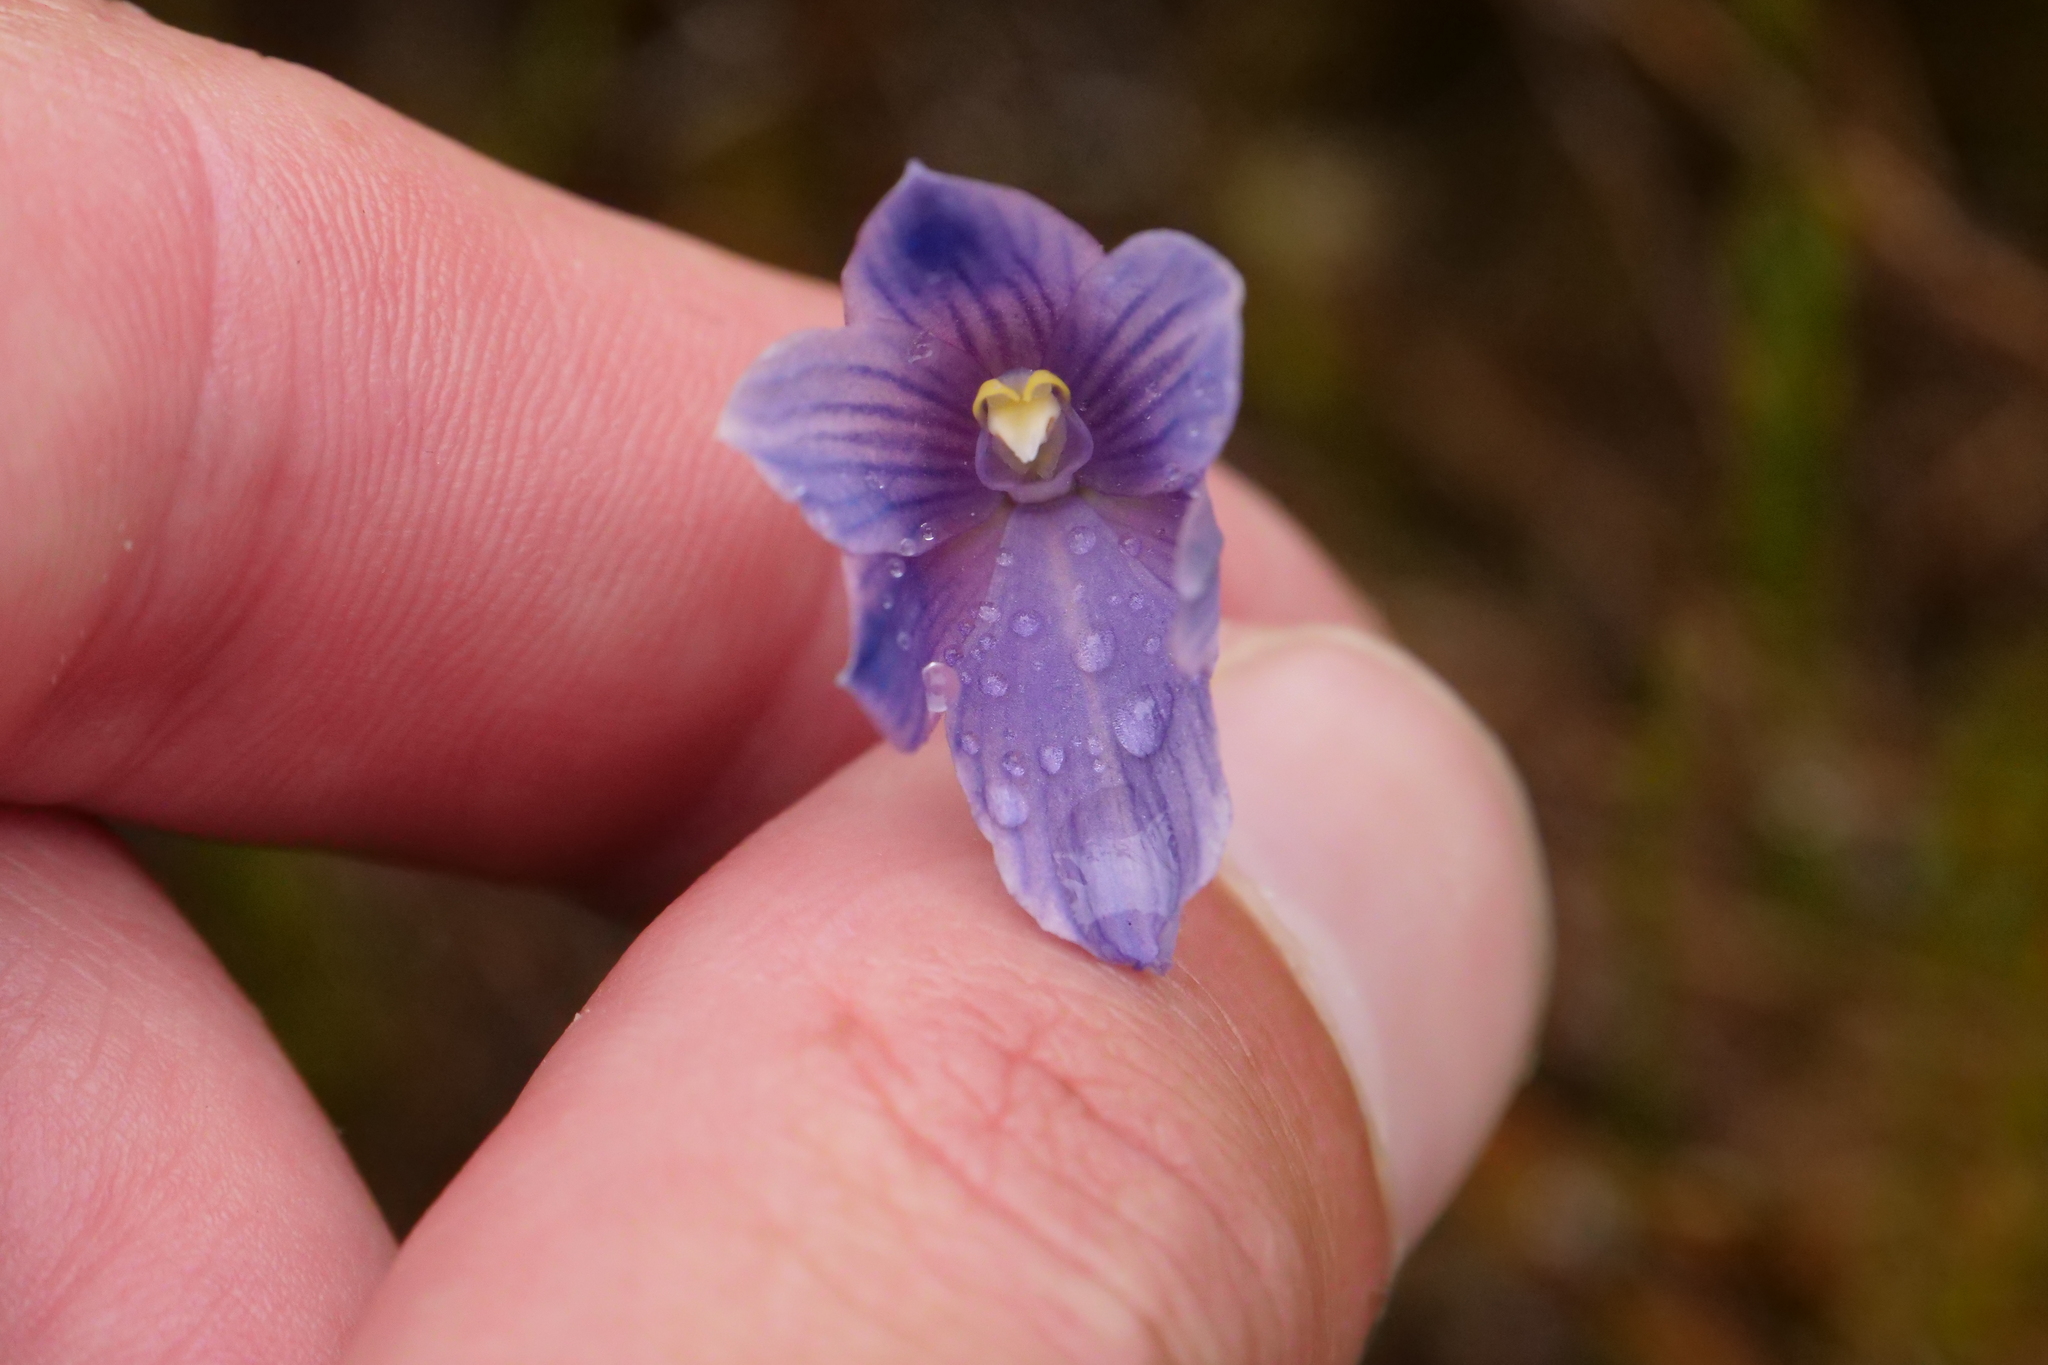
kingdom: Plantae
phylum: Tracheophyta
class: Liliopsida
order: Asparagales
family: Orchidaceae
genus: Thelymitra
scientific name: Thelymitra cyanea
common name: Blue sun-orchid
